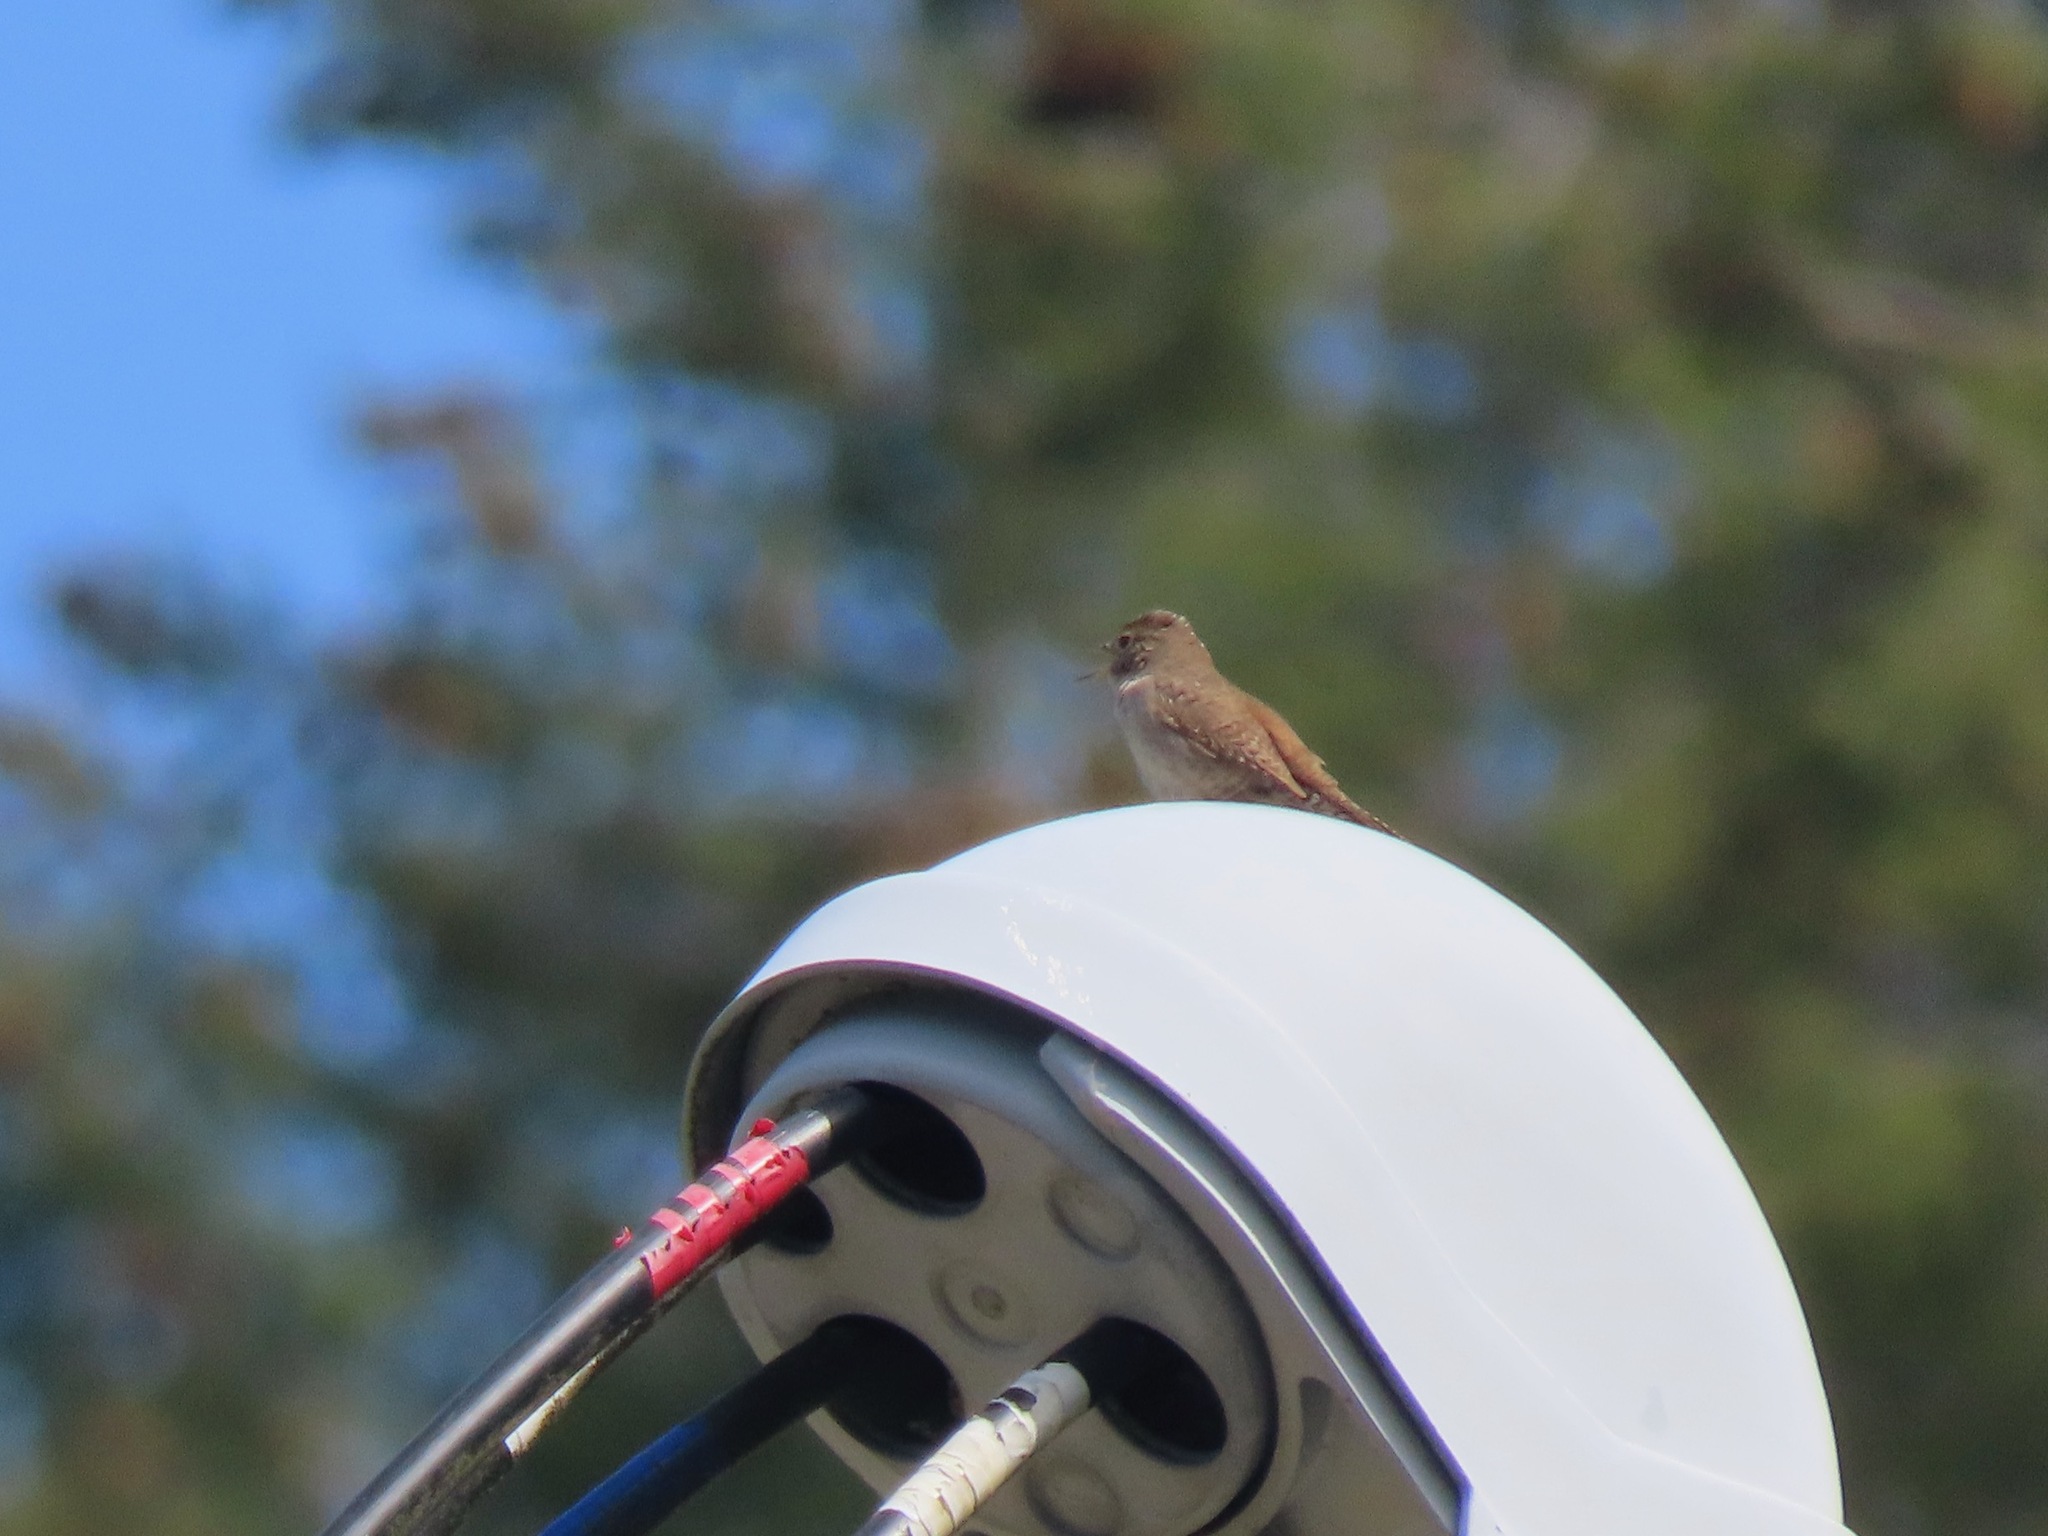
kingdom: Animalia
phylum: Chordata
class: Aves
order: Passeriformes
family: Troglodytidae
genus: Troglodytes
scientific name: Troglodytes aedon
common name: House wren
